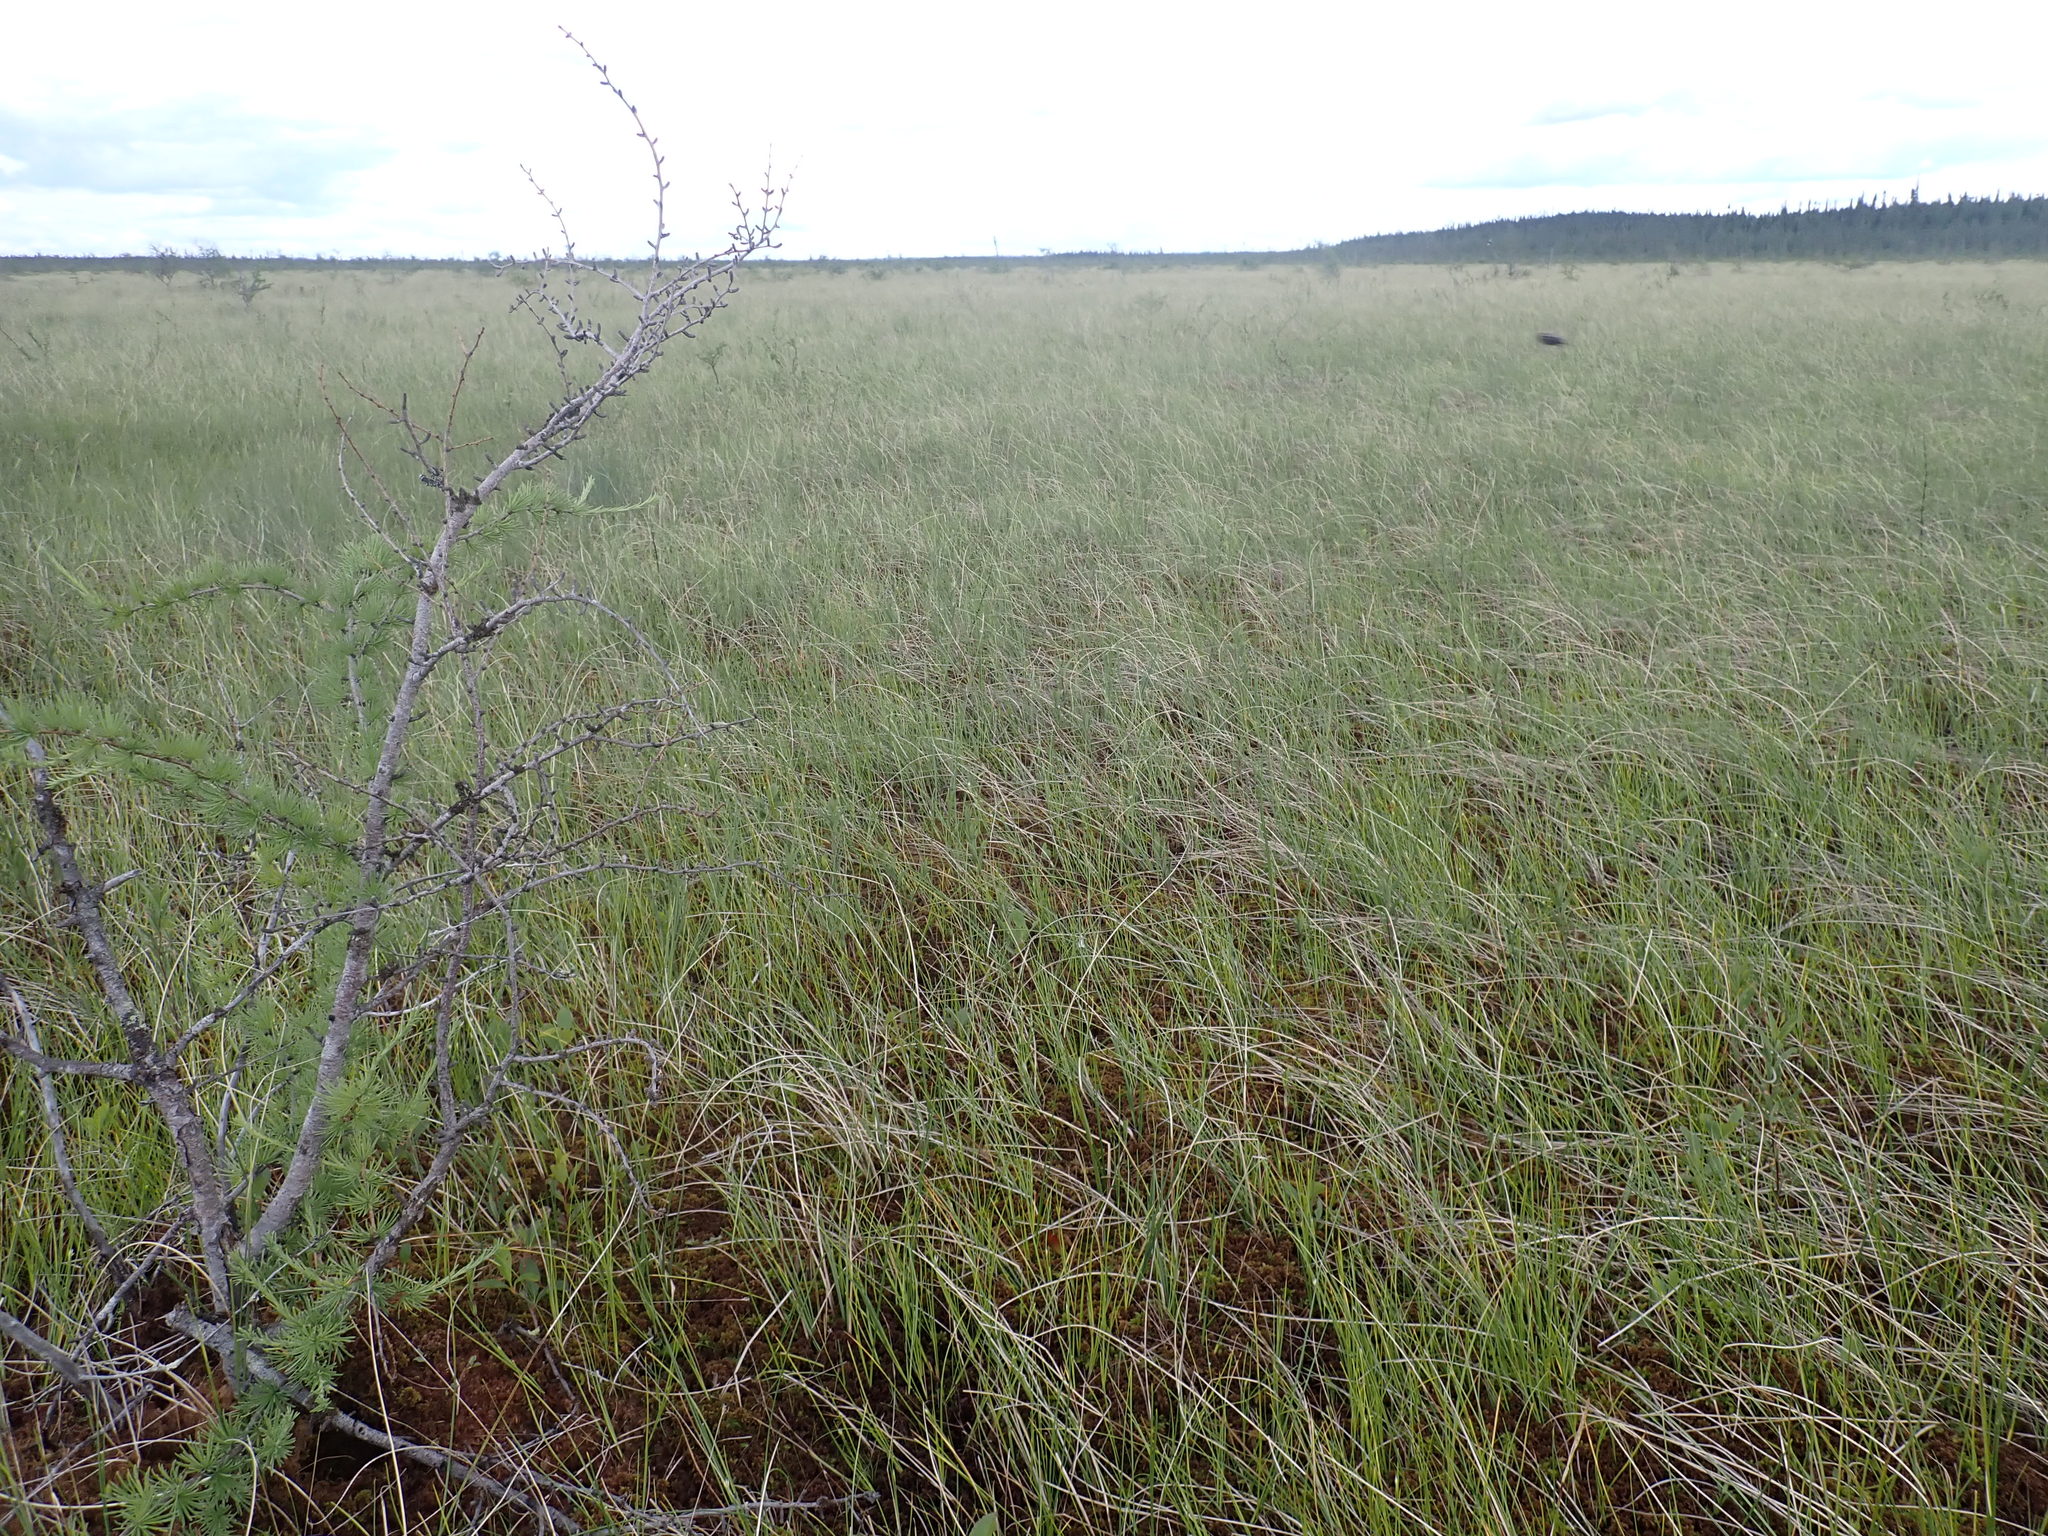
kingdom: Plantae
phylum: Tracheophyta
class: Pinopsida
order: Pinales
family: Pinaceae
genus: Larix
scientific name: Larix laricina
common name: American larch
